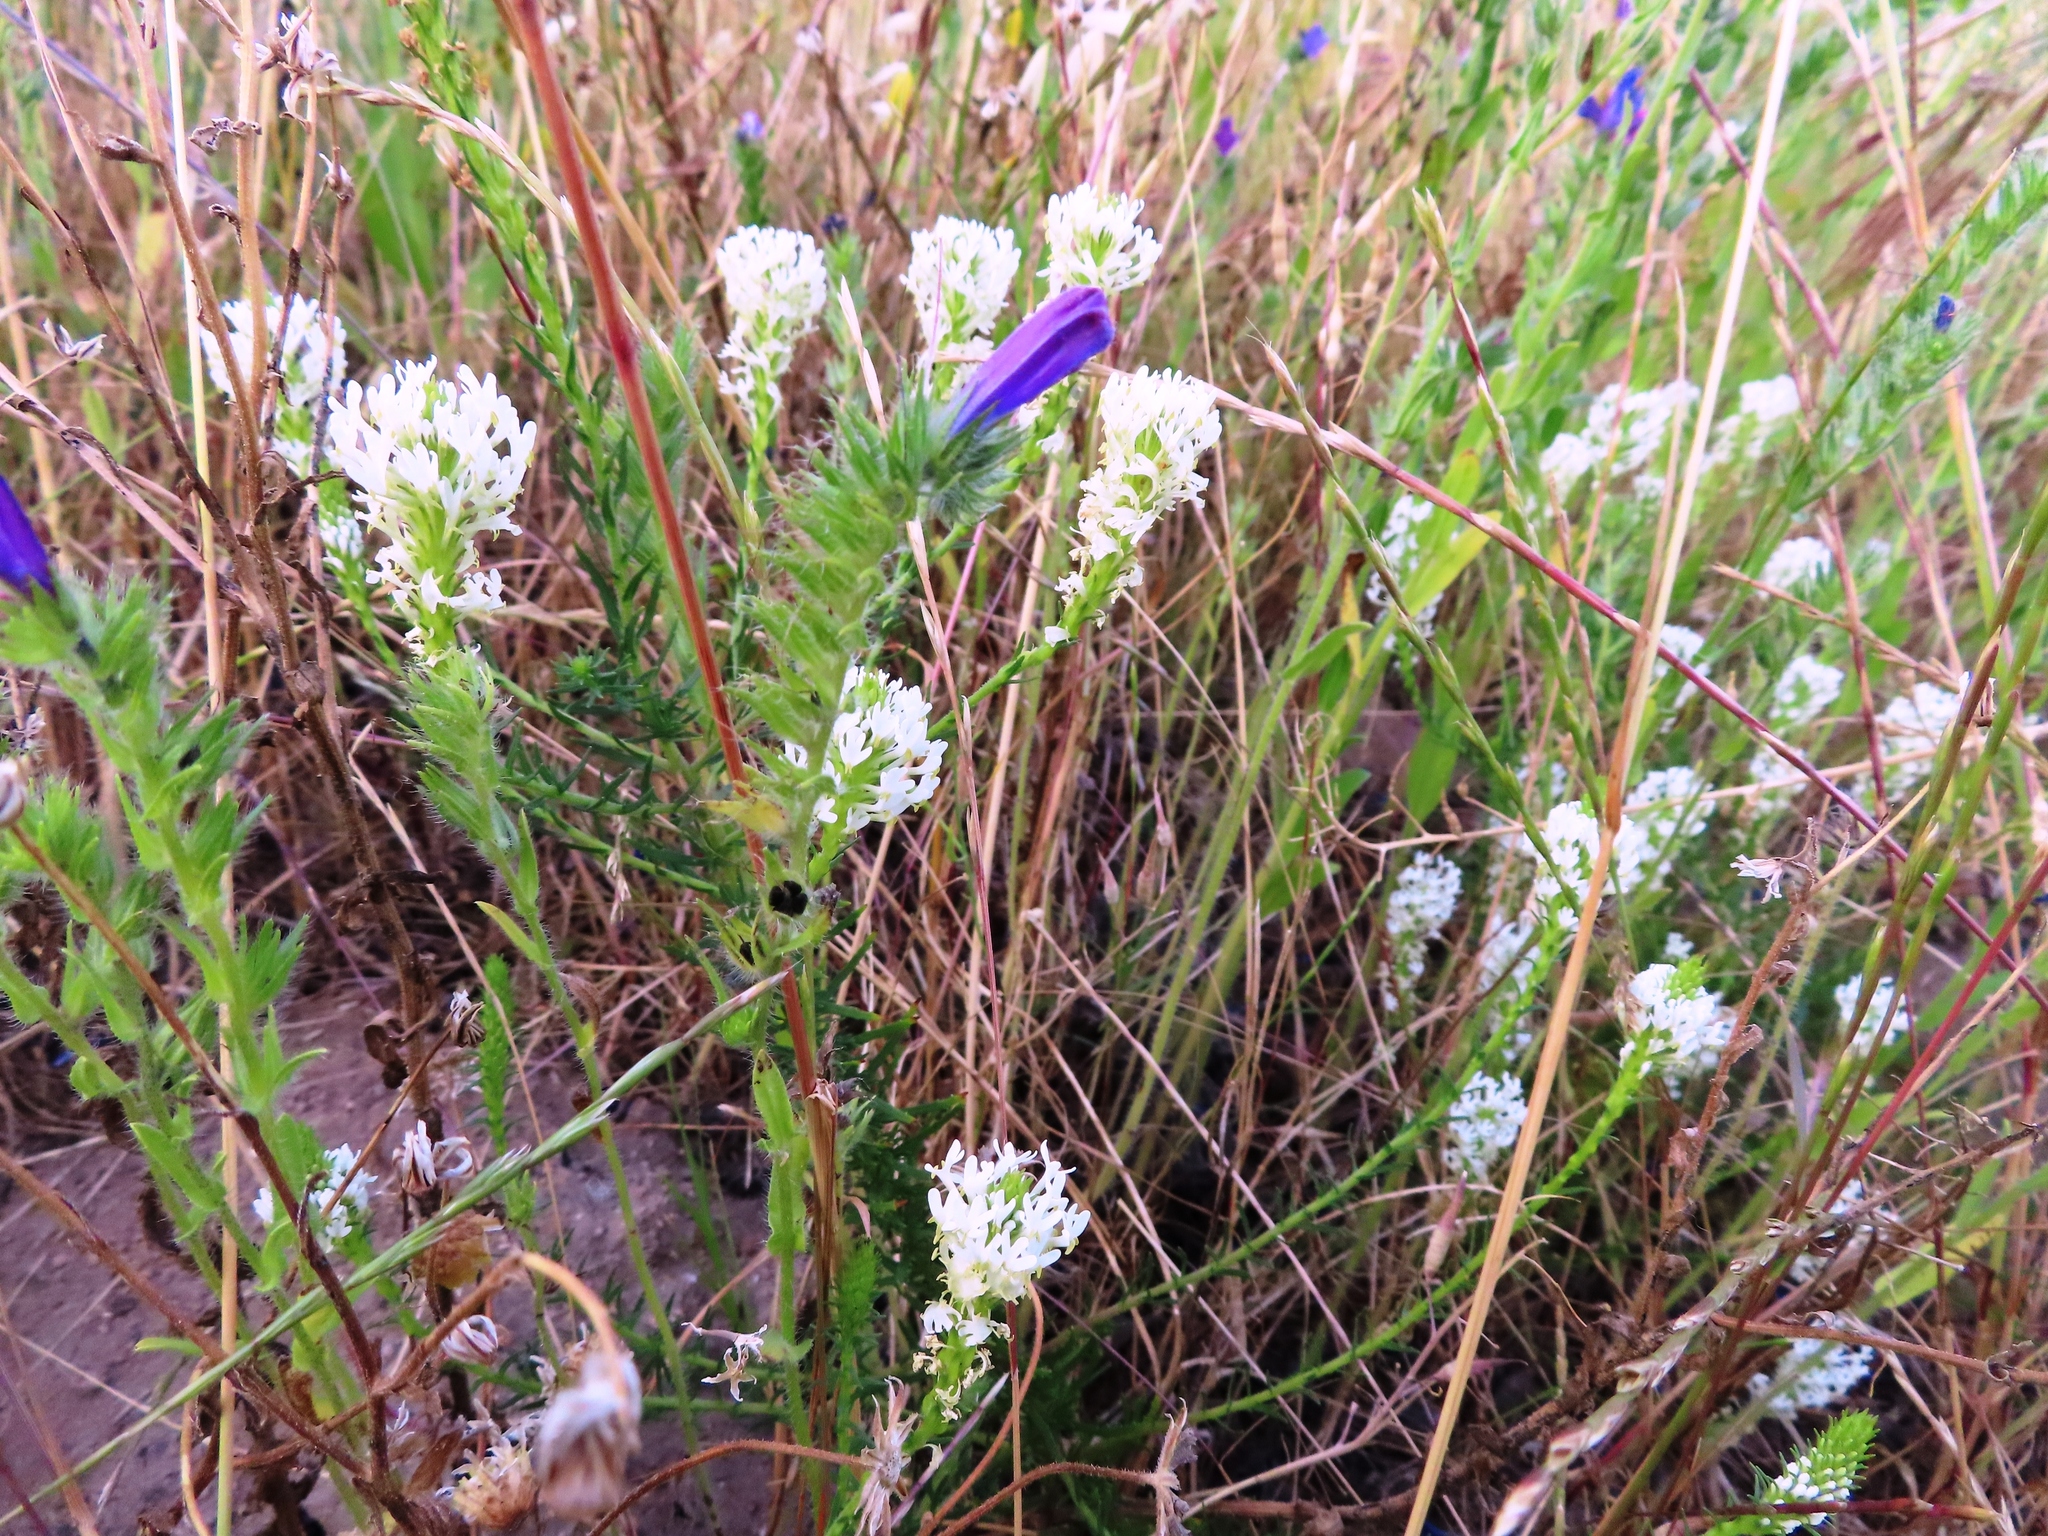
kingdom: Plantae
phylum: Tracheophyta
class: Magnoliopsida
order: Lamiales
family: Scrophulariaceae
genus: Dischisma
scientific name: Dischisma ciliatum
